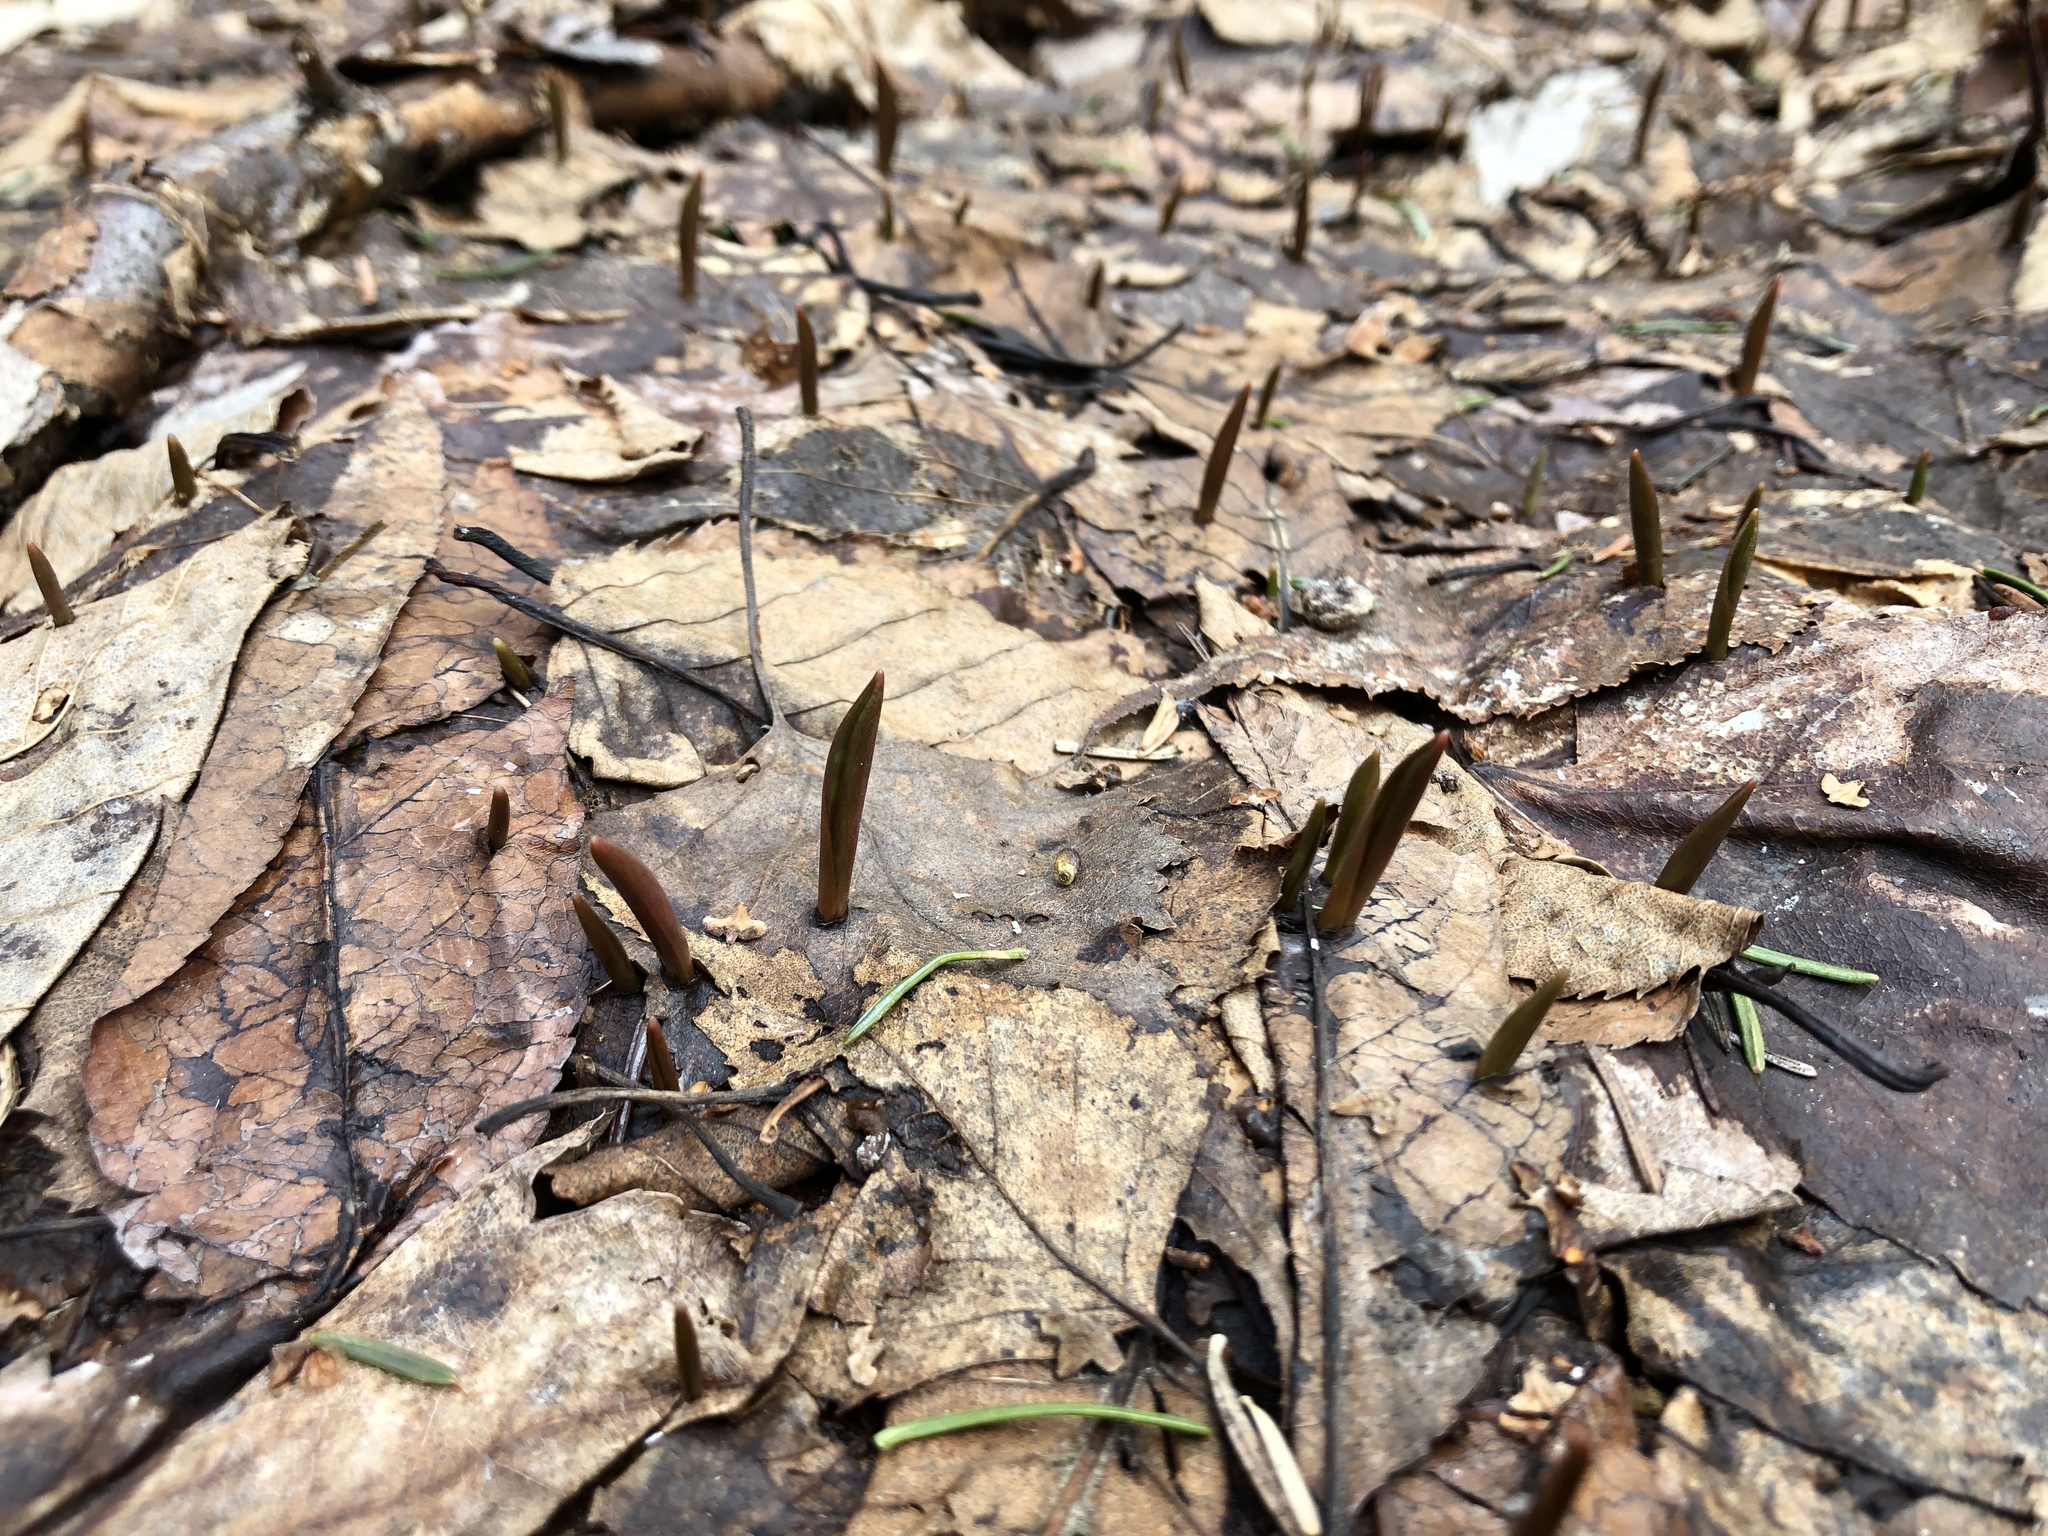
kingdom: Plantae
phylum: Tracheophyta
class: Liliopsida
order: Liliales
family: Liliaceae
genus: Erythronium
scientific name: Erythronium americanum
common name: Yellow adder's-tongue
